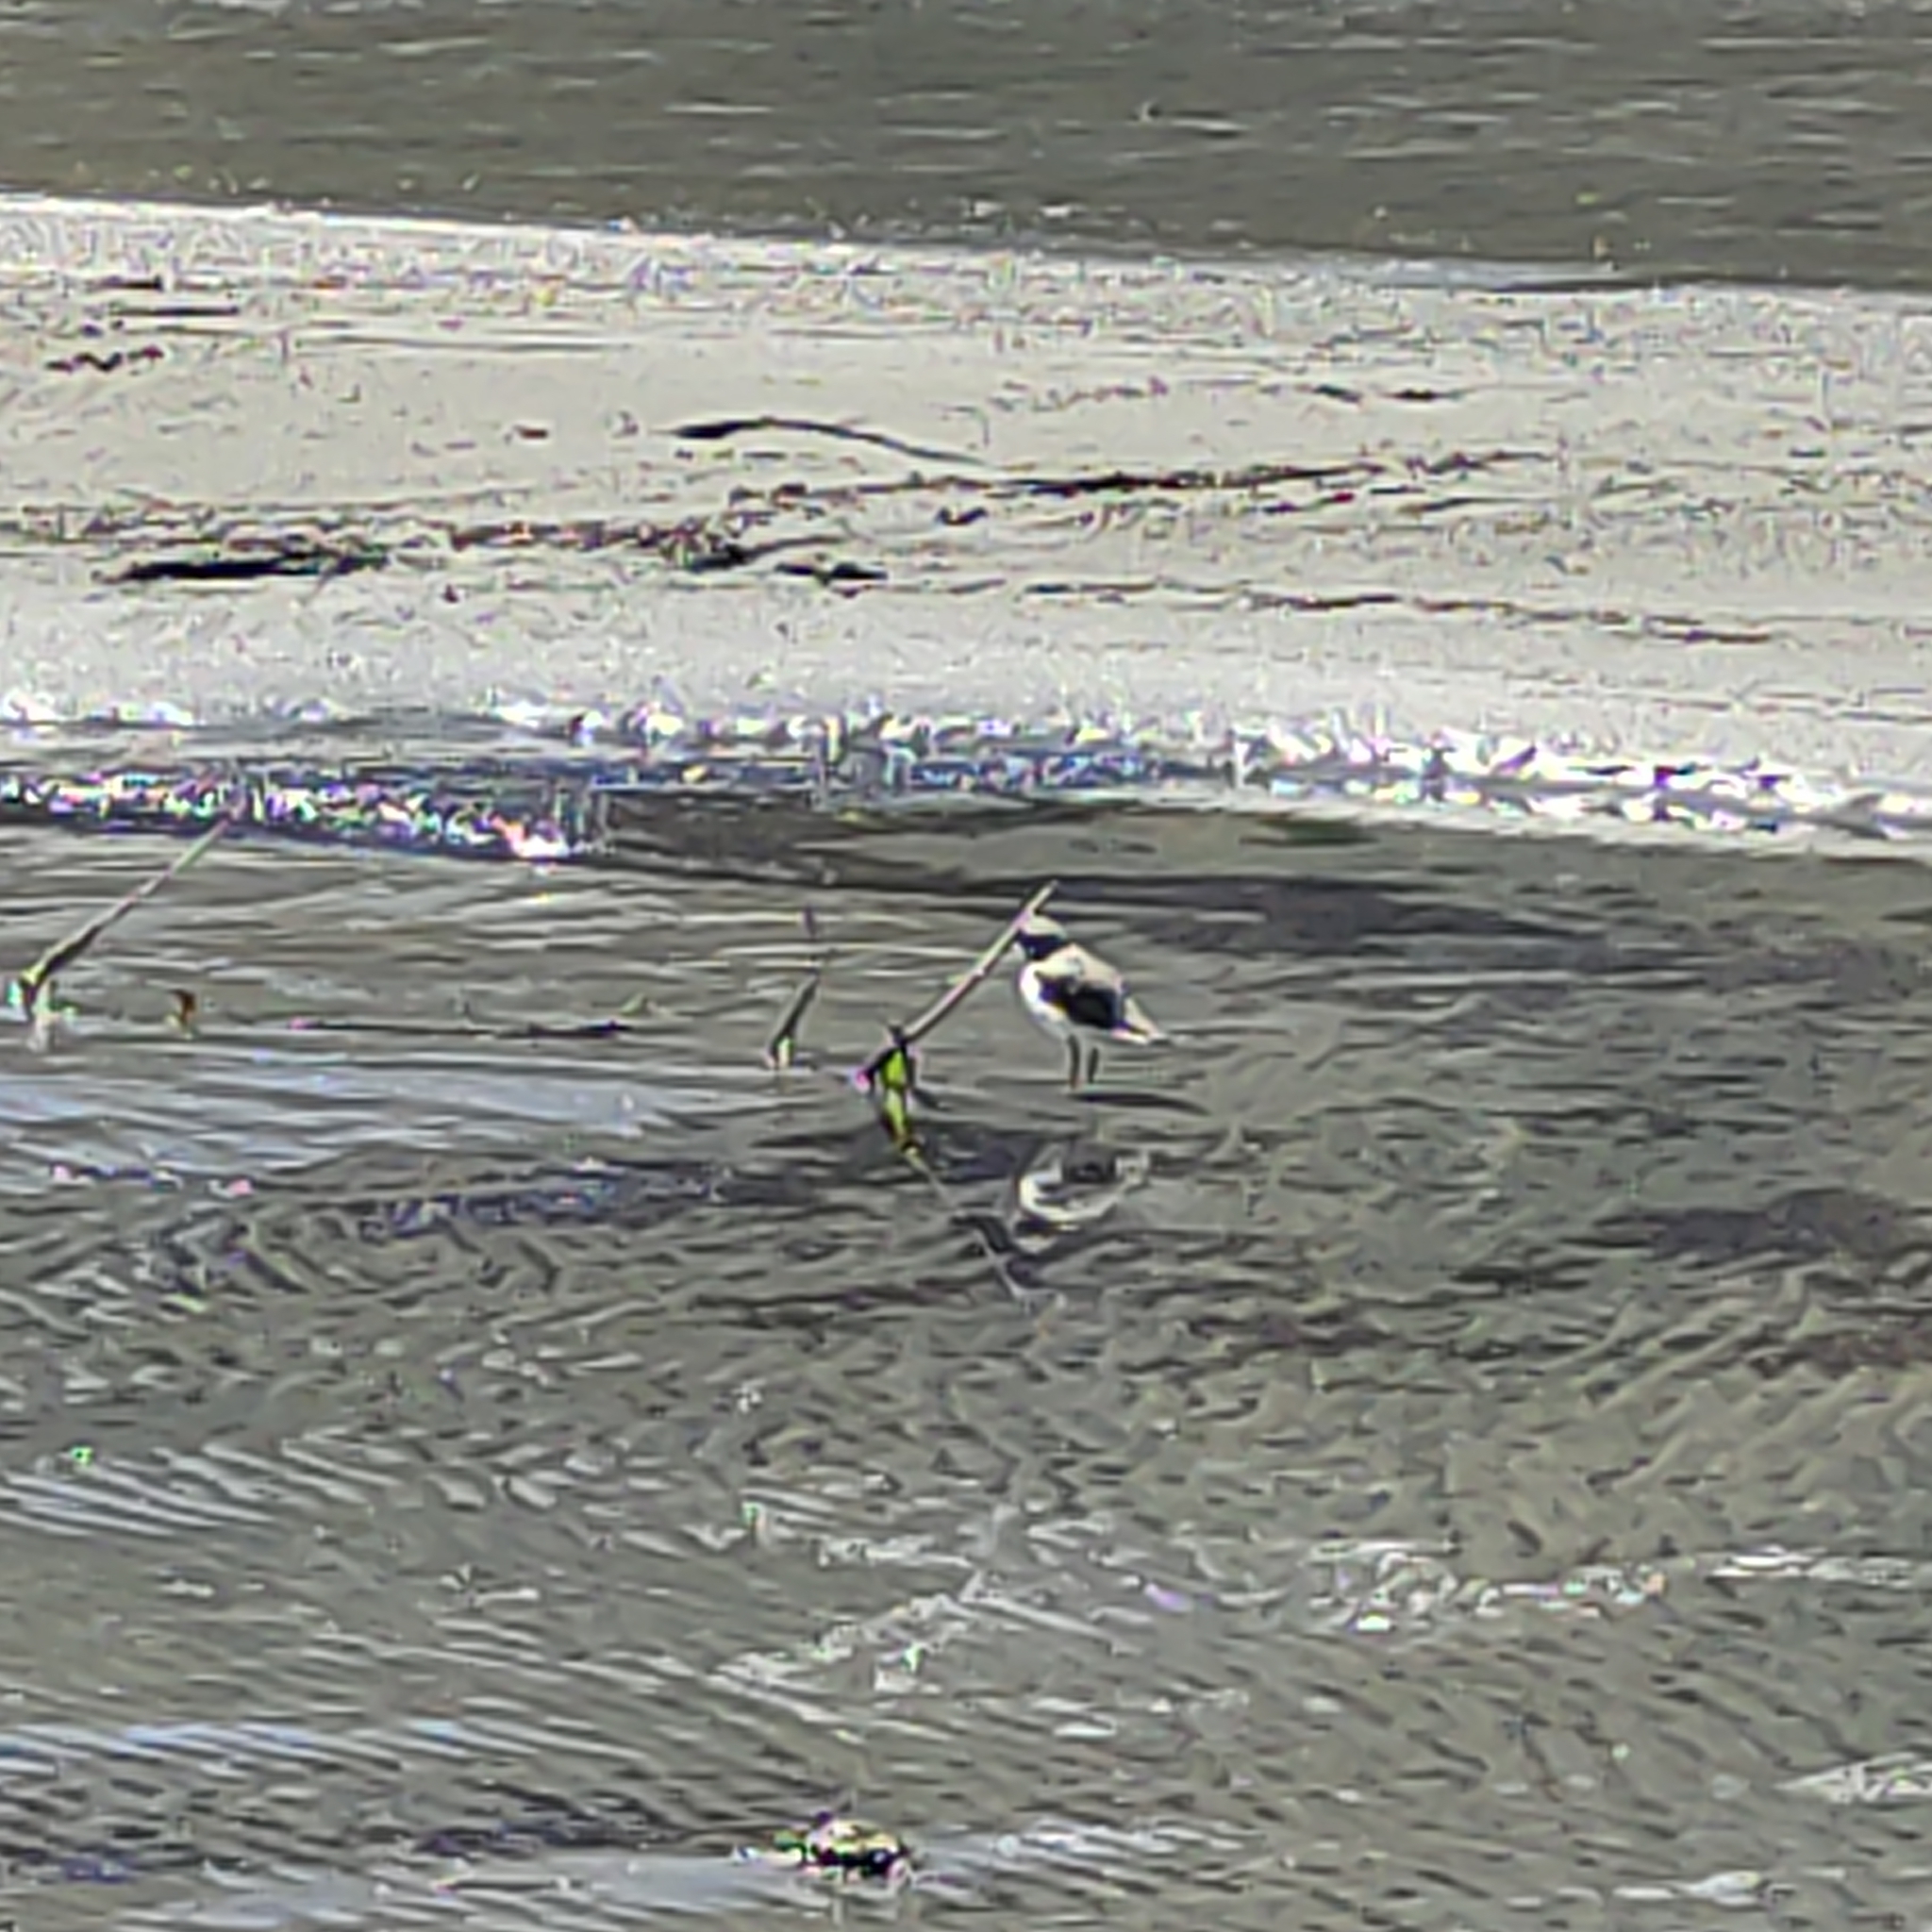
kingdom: Animalia
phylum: Chordata
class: Aves
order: Charadriiformes
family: Charadriidae
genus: Anarhynchus
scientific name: Anarhynchus
